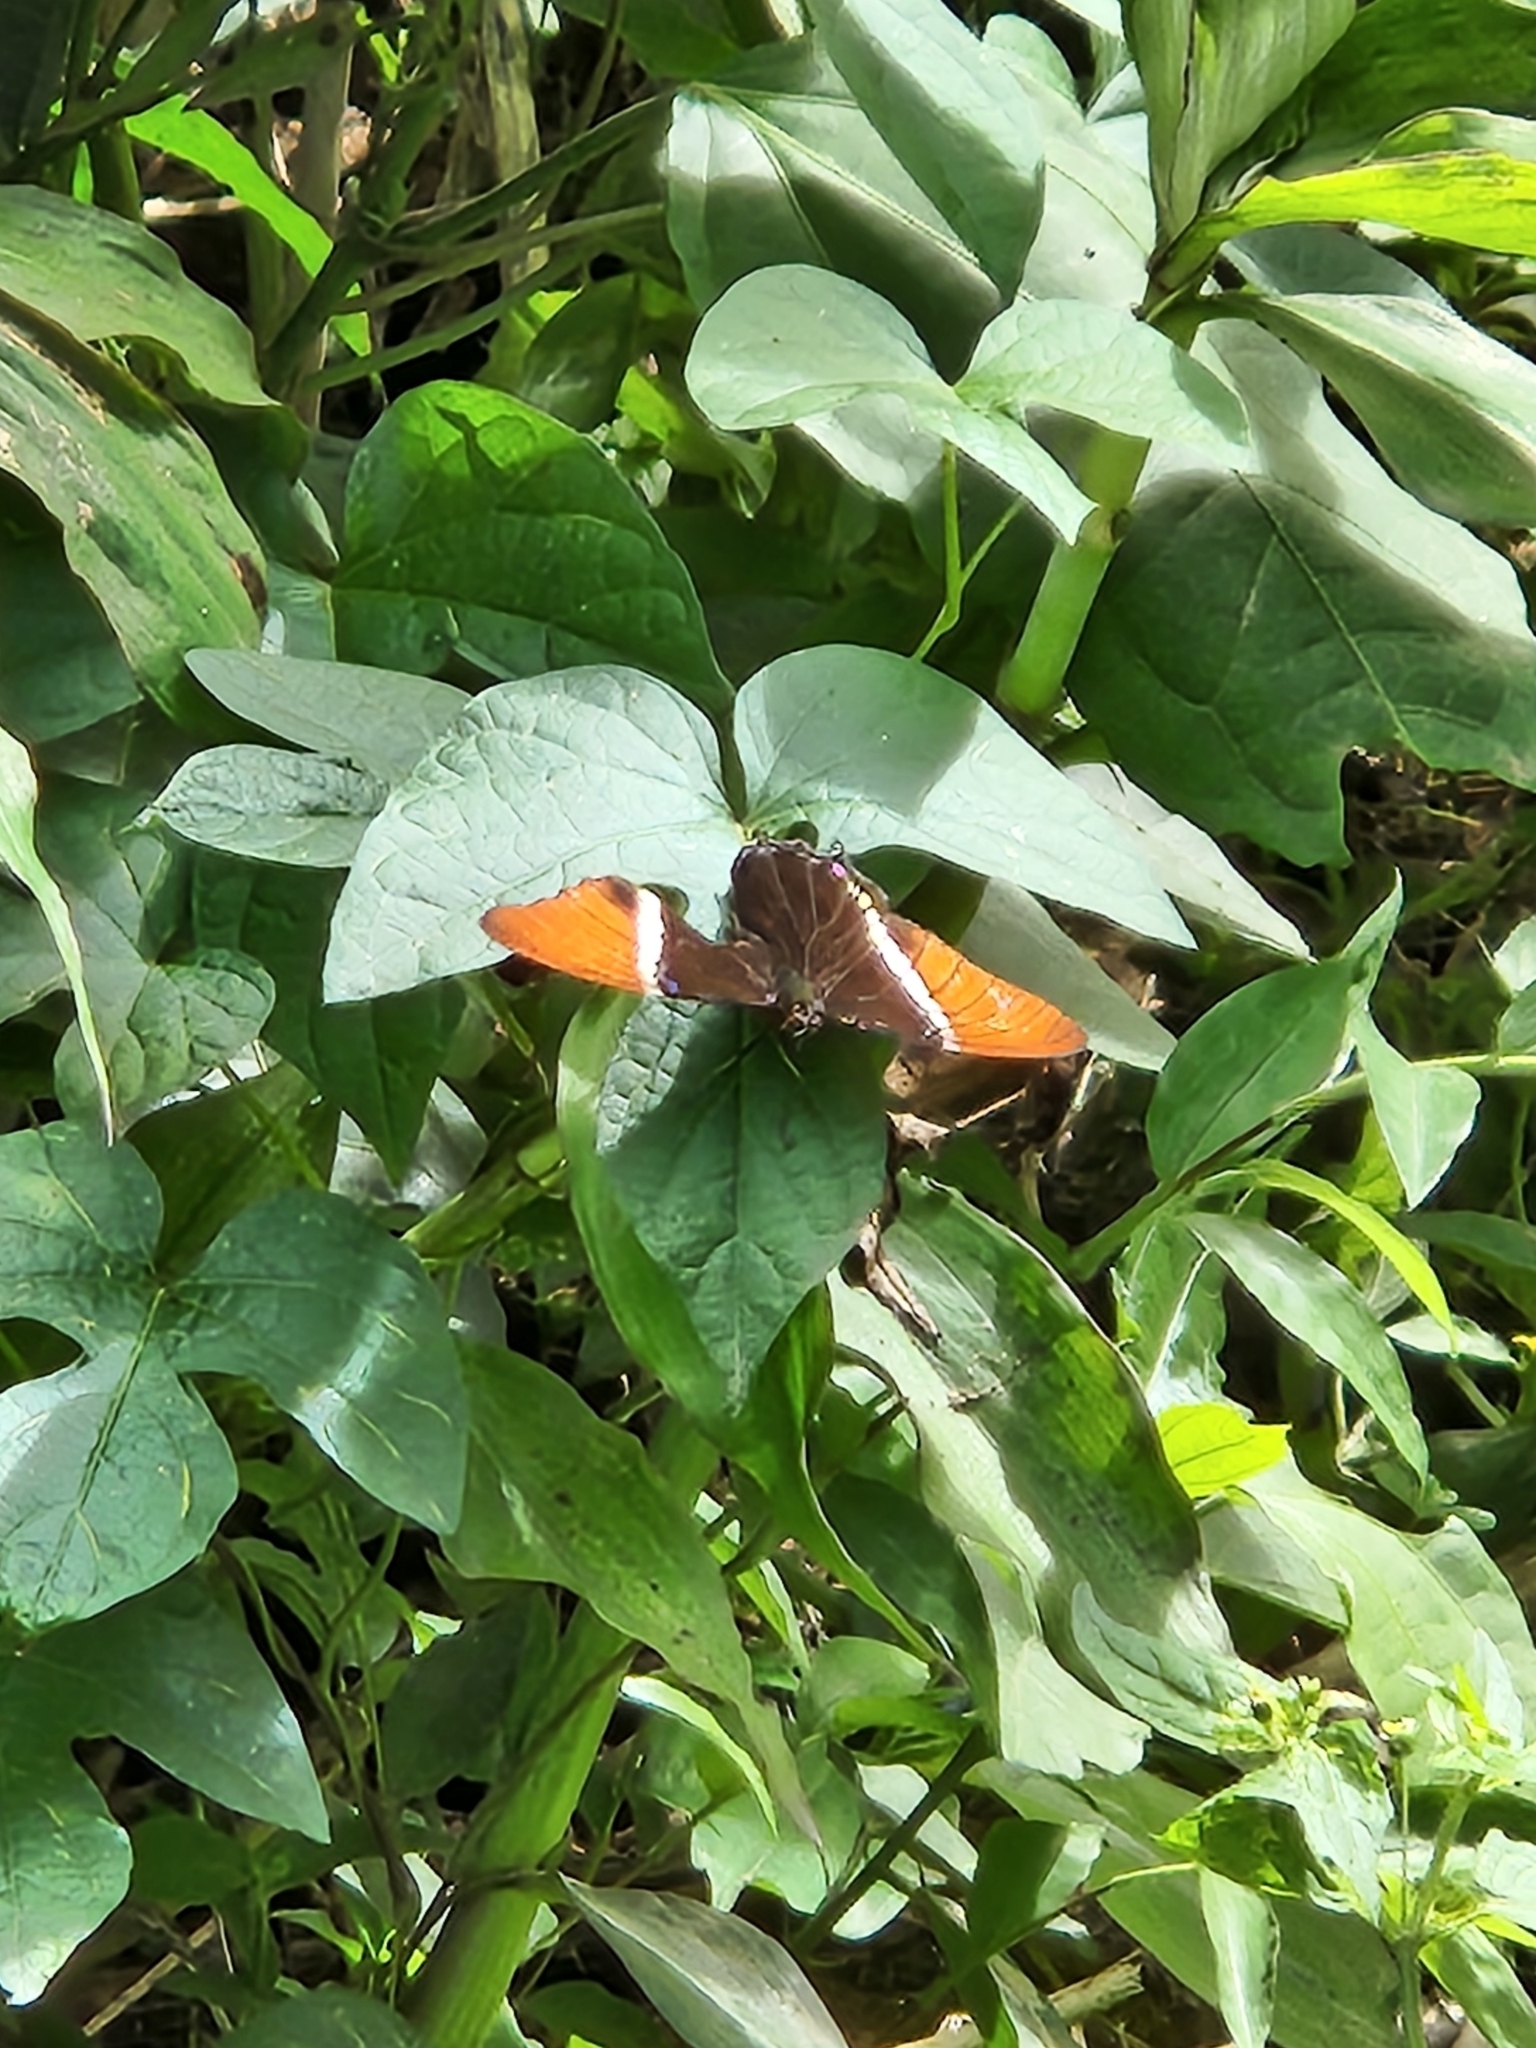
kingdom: Animalia
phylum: Arthropoda
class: Insecta
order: Lepidoptera
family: Nymphalidae
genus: Siproeta
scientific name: Siproeta epaphus
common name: Rusty-tipped page
